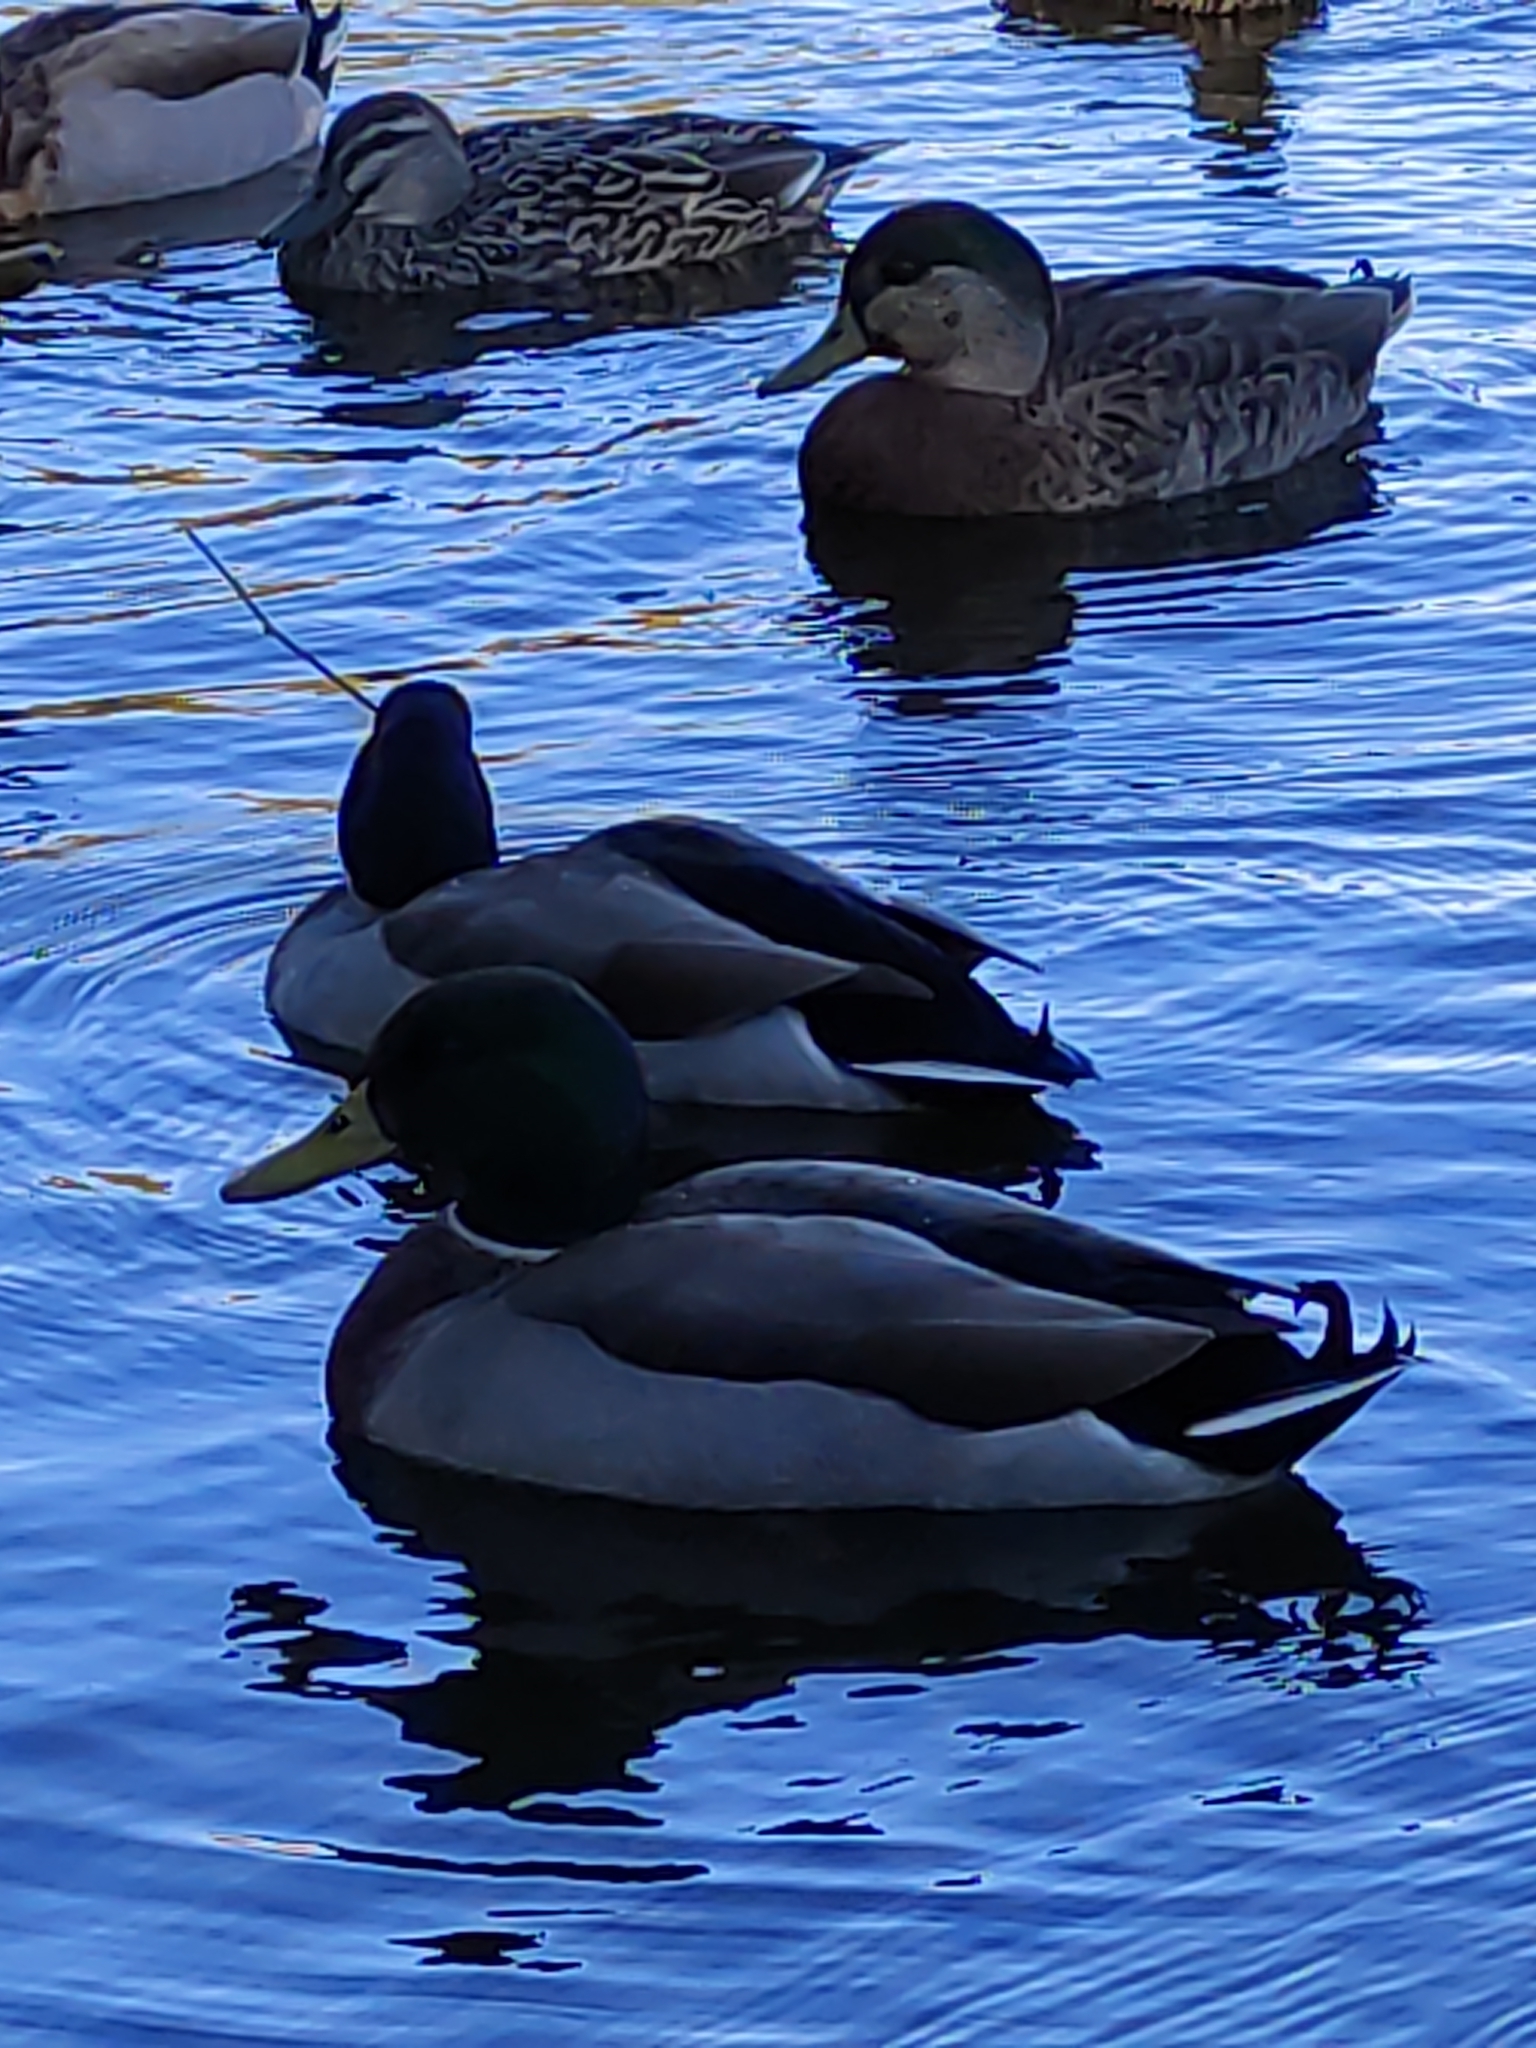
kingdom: Animalia
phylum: Chordata
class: Aves
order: Anseriformes
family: Anatidae
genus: Anas
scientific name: Anas platyrhynchos
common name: Mallard
